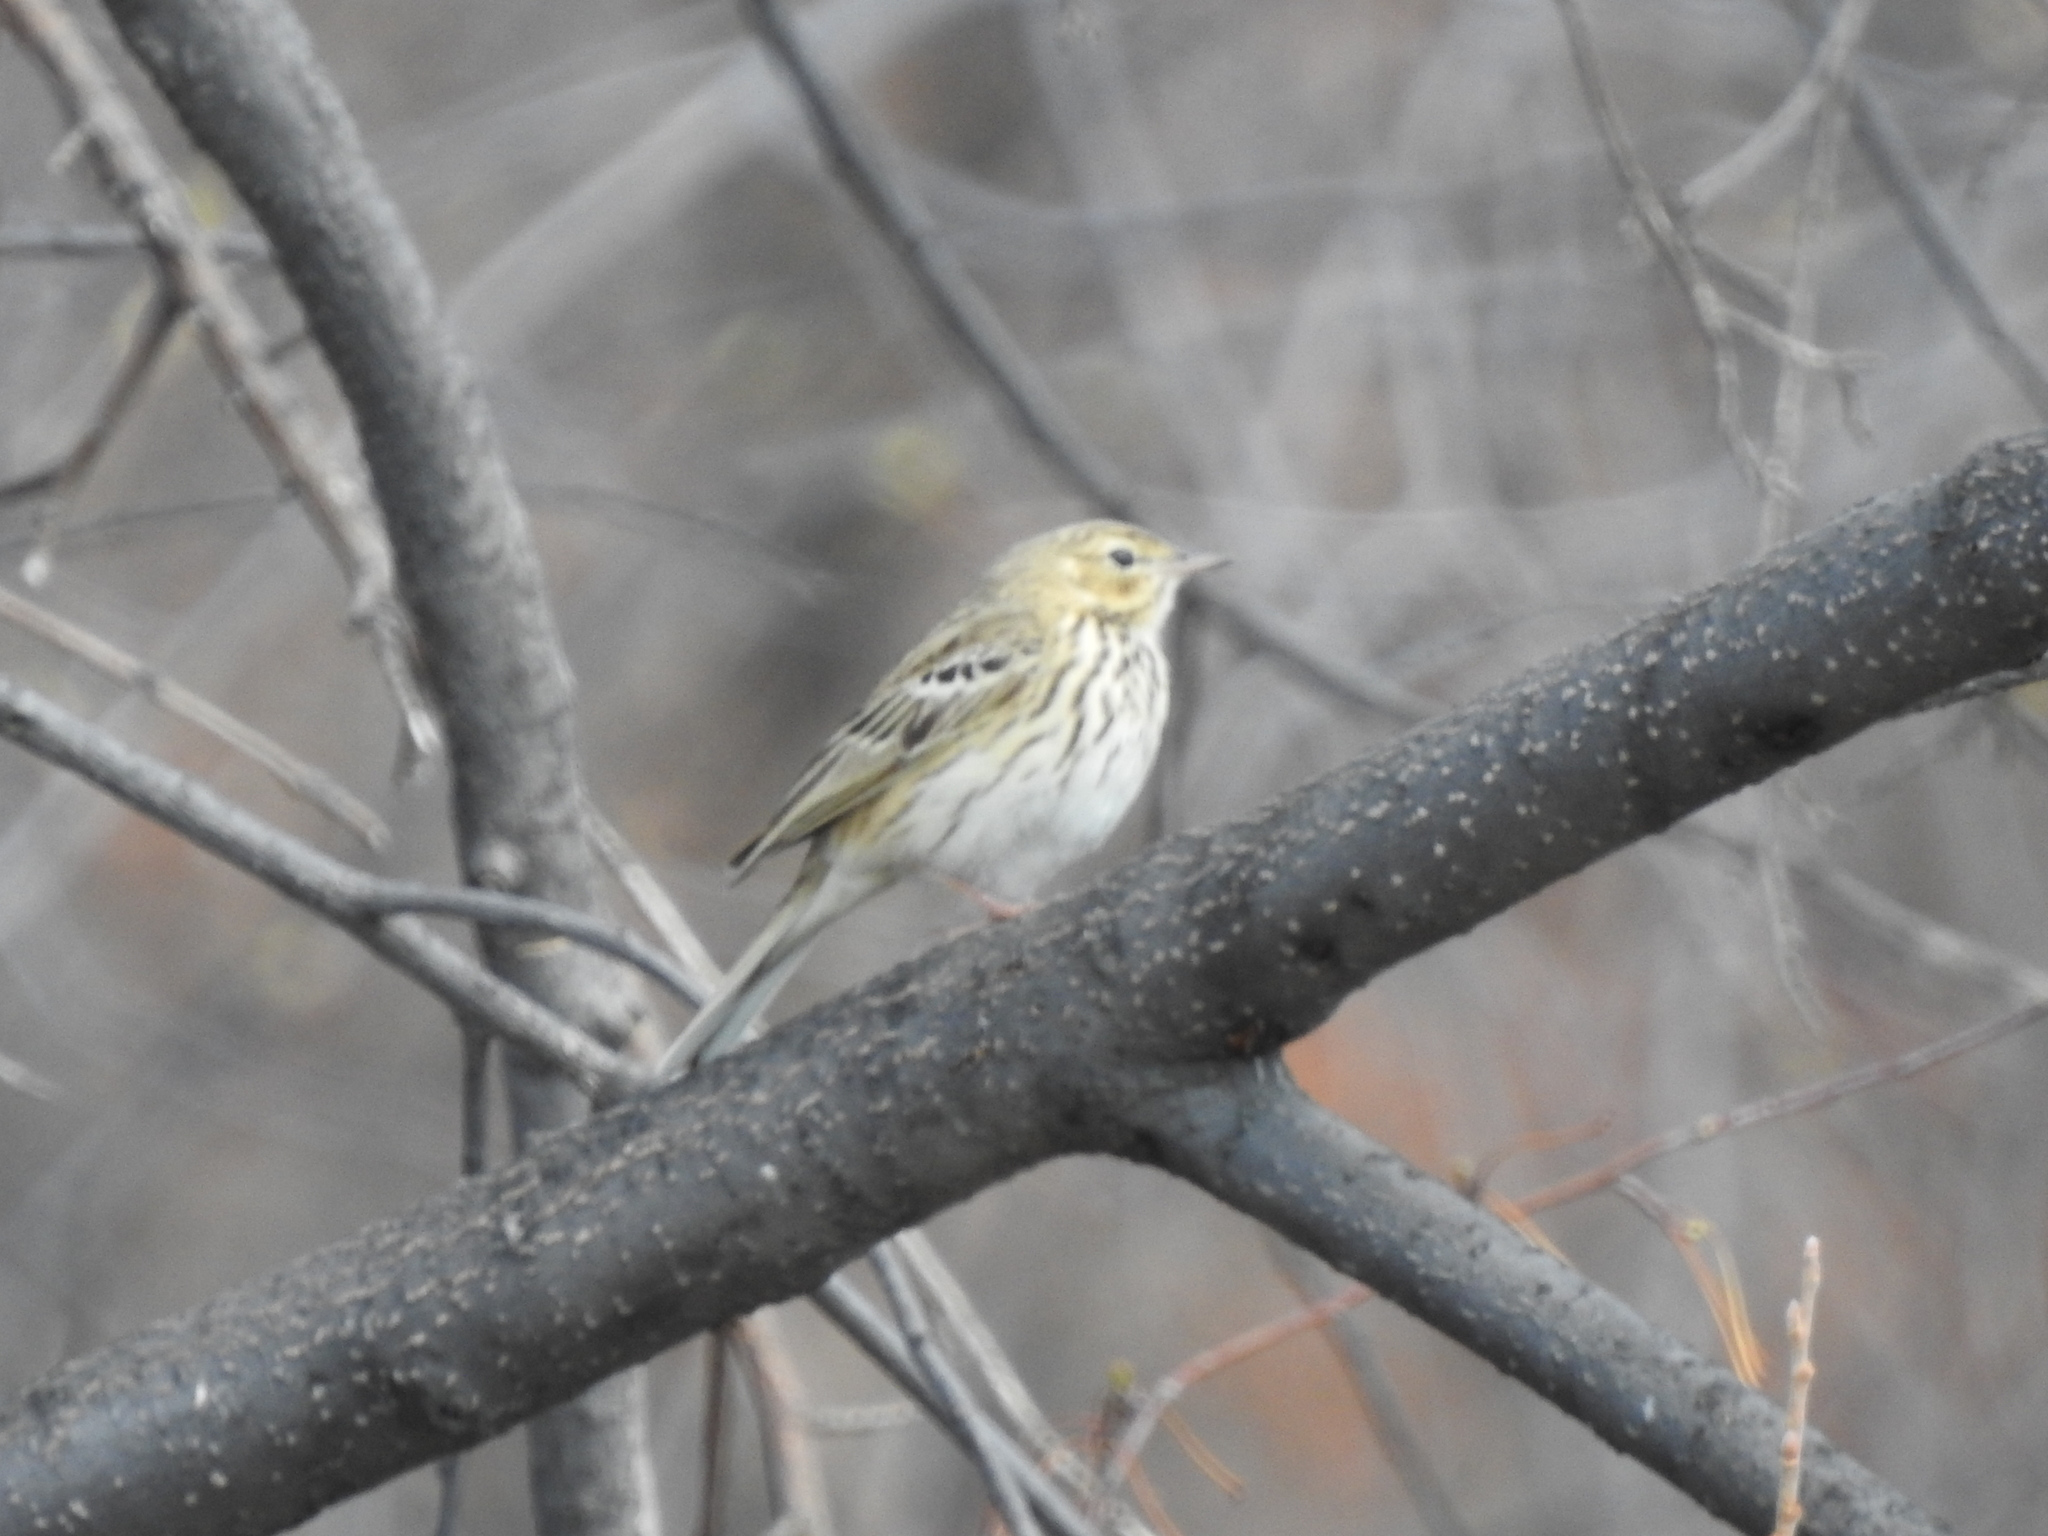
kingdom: Animalia
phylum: Chordata
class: Aves
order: Passeriformes
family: Motacillidae
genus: Anthus
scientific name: Anthus trivialis
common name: Tree pipit
